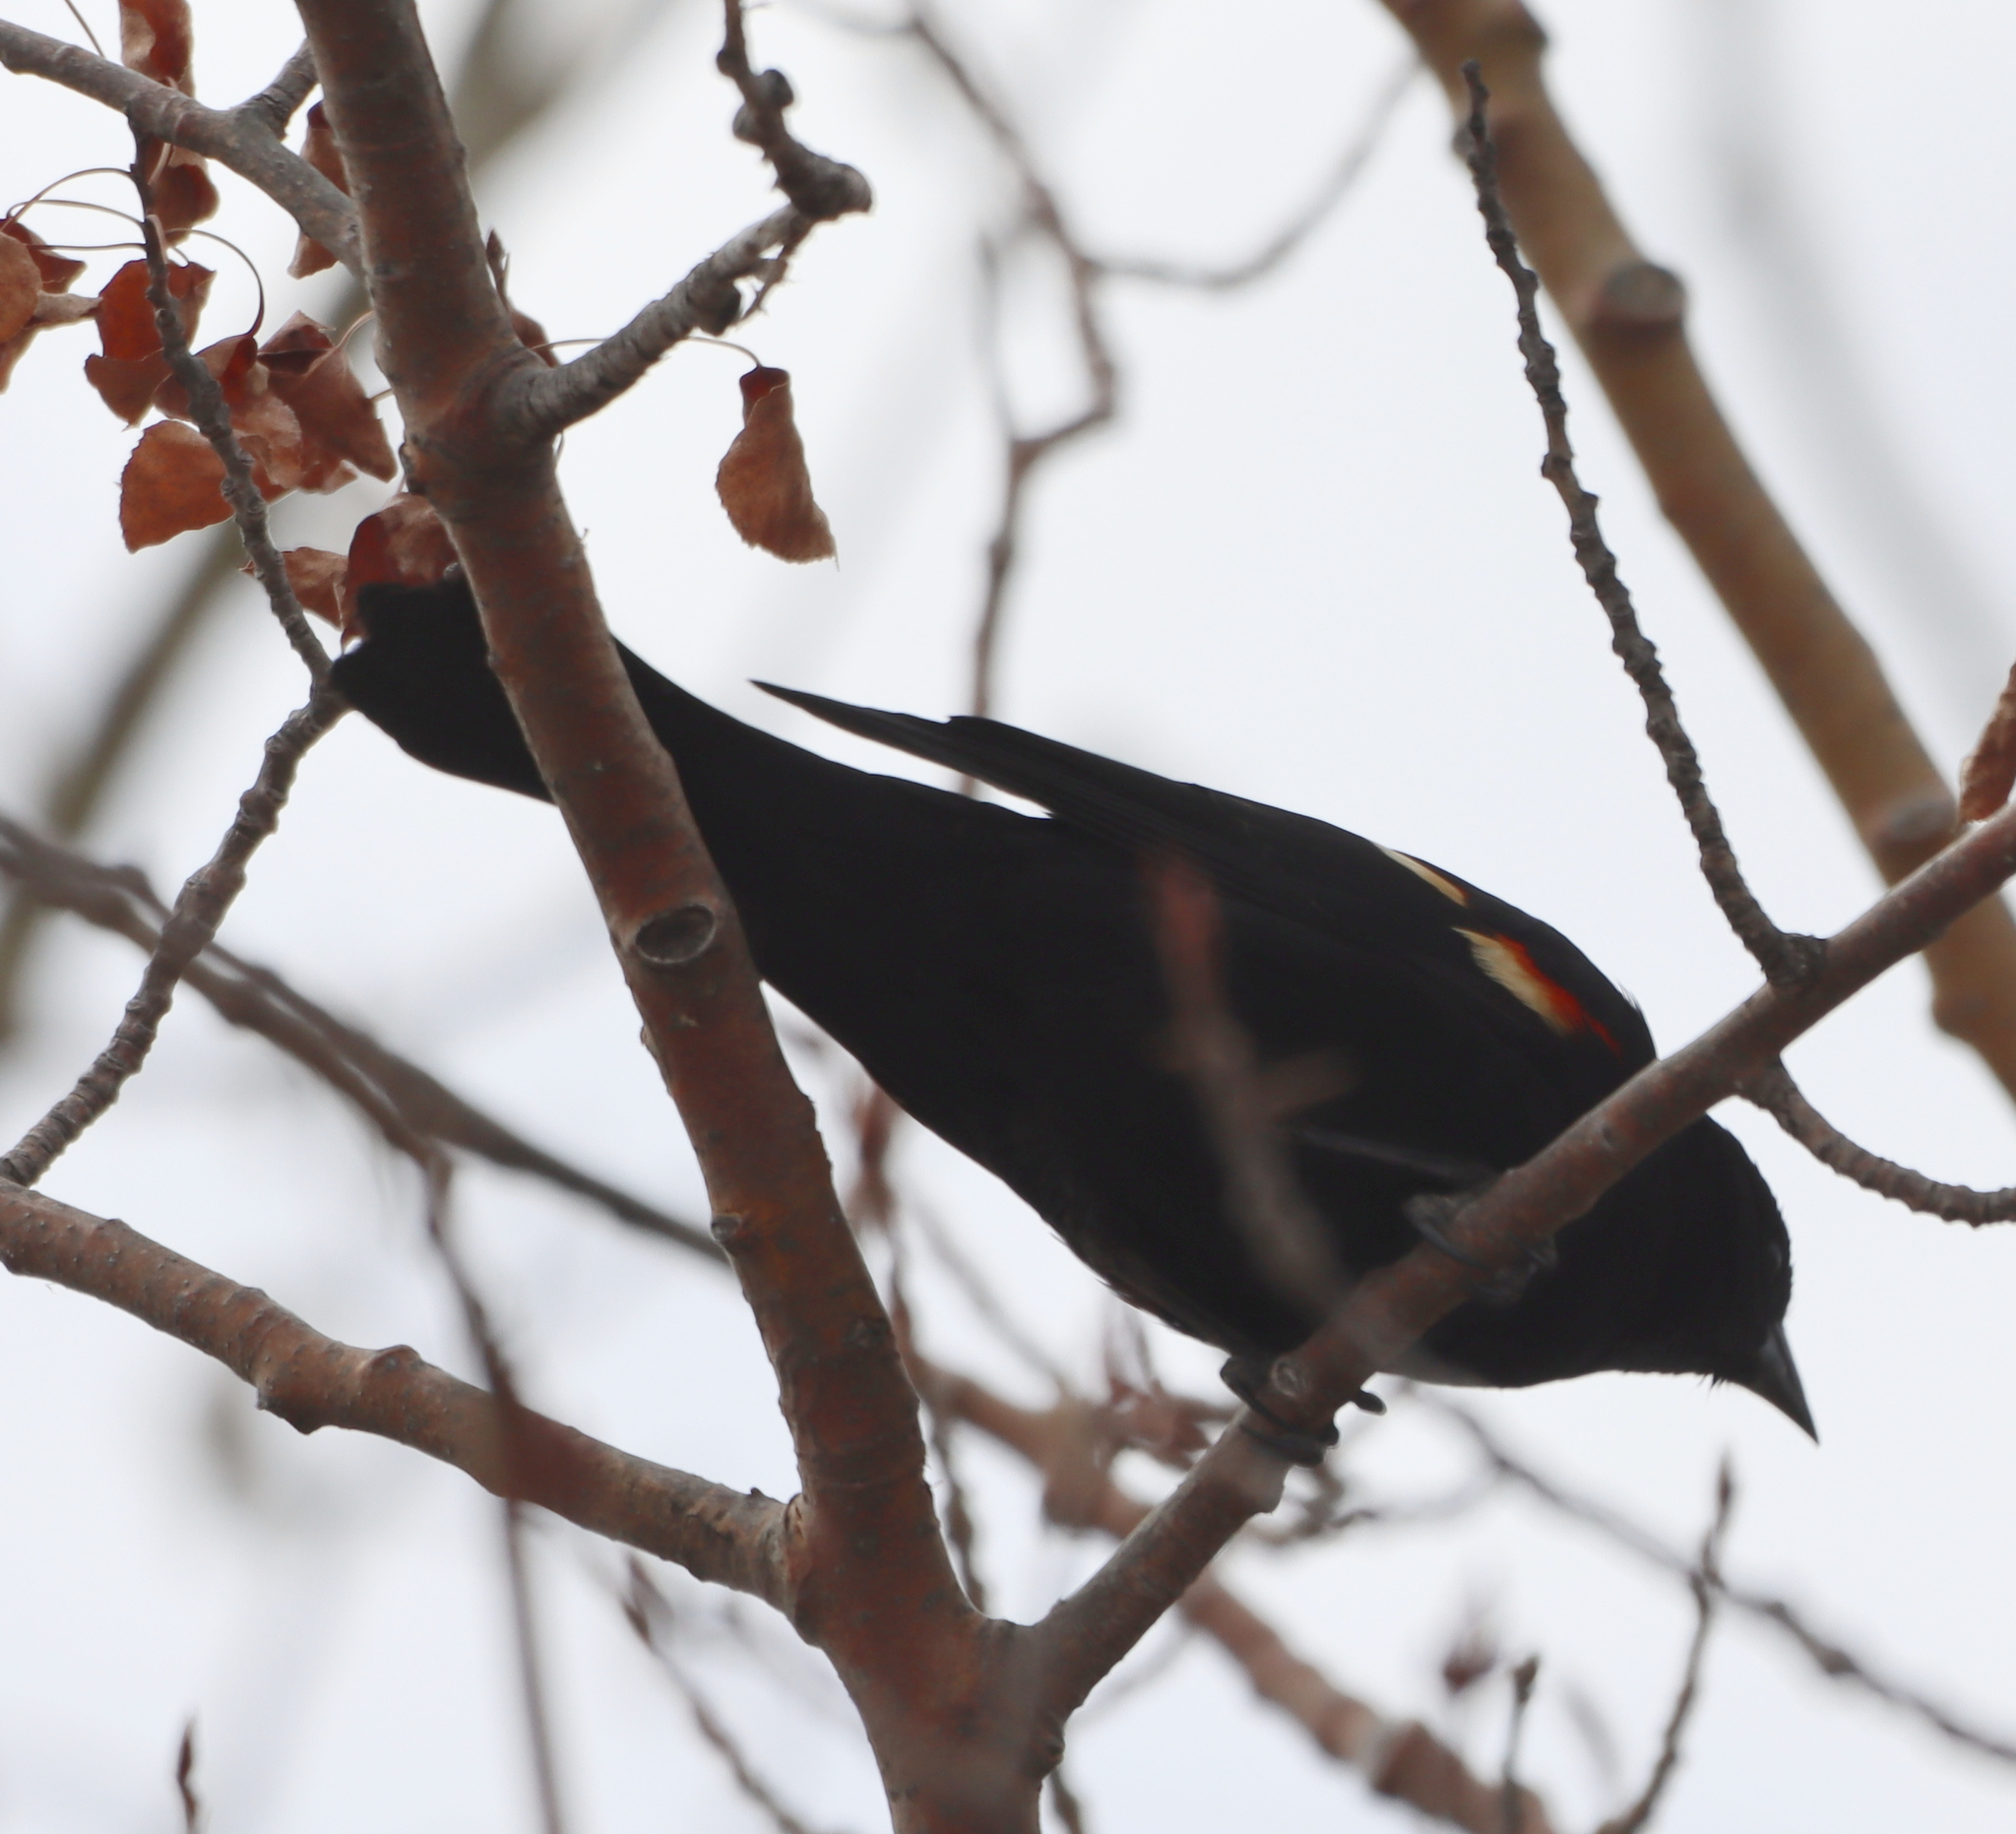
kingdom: Animalia
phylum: Chordata
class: Aves
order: Passeriformes
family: Icteridae
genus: Agelaius
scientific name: Agelaius phoeniceus
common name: Red-winged blackbird
